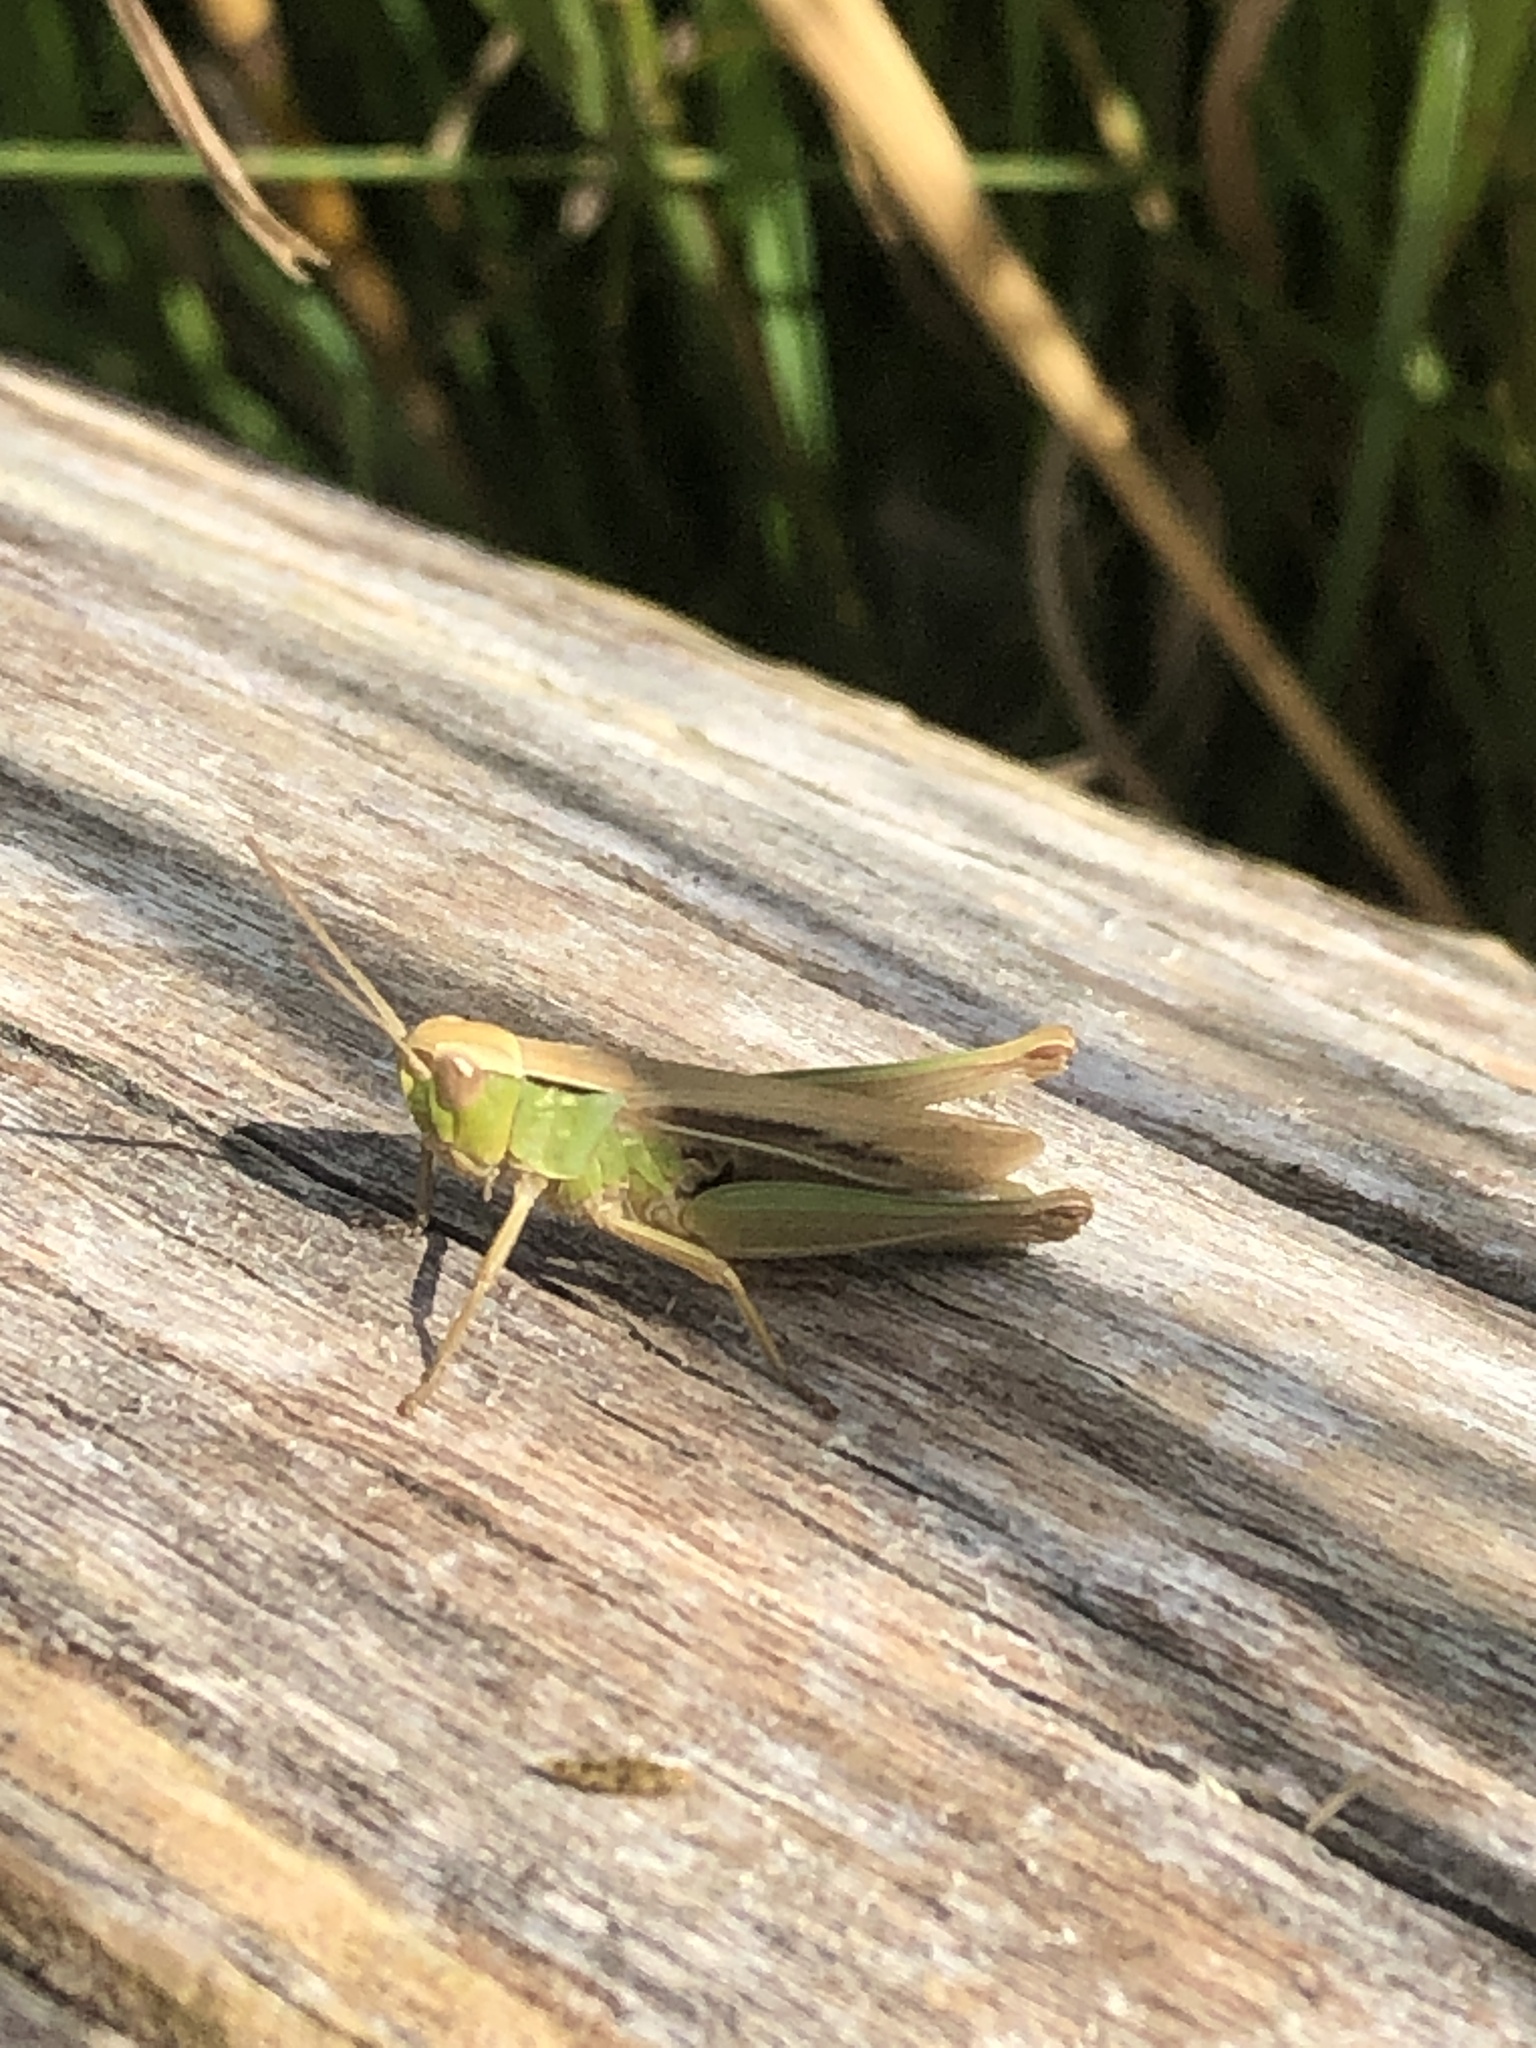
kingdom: Animalia
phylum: Arthropoda
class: Insecta
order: Orthoptera
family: Acrididae
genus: Chorthippus
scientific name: Chorthippus albomarginatus
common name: Lesser marsh grasshopper
